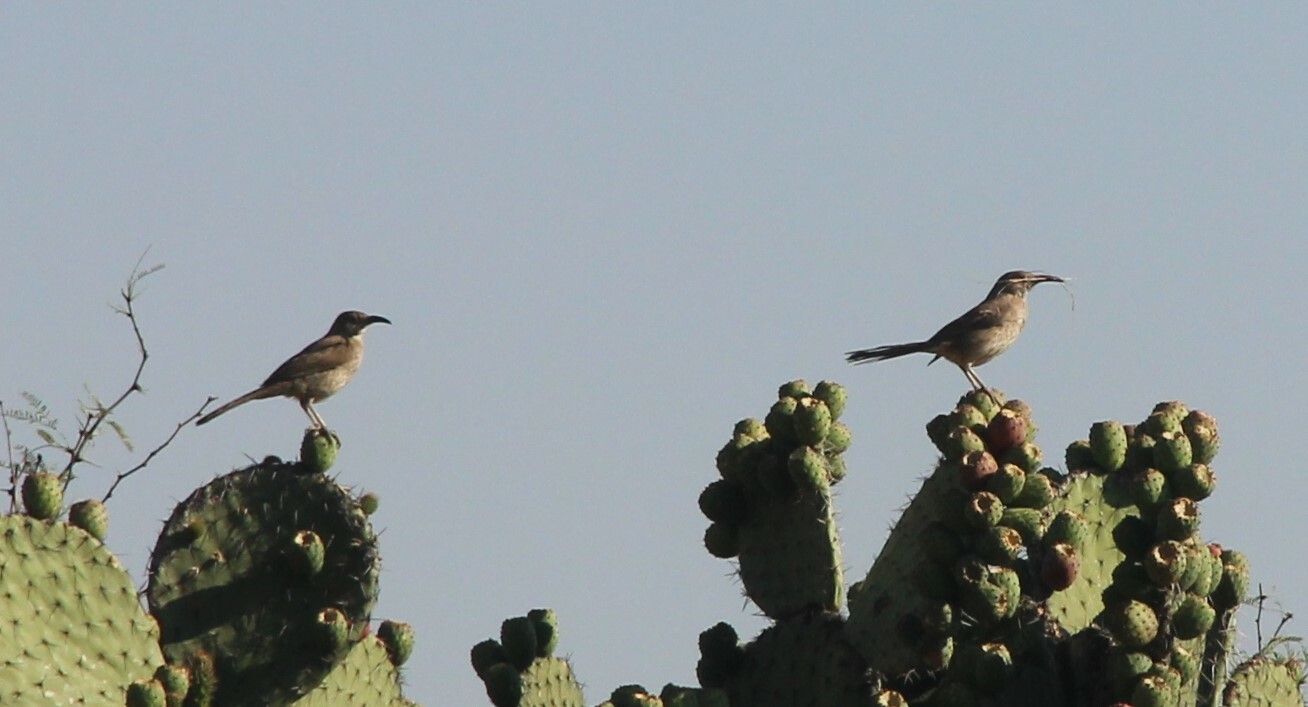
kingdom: Animalia
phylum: Chordata
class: Aves
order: Passeriformes
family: Mimidae
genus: Toxostoma
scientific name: Toxostoma curvirostre
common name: Curve-billed thrasher
